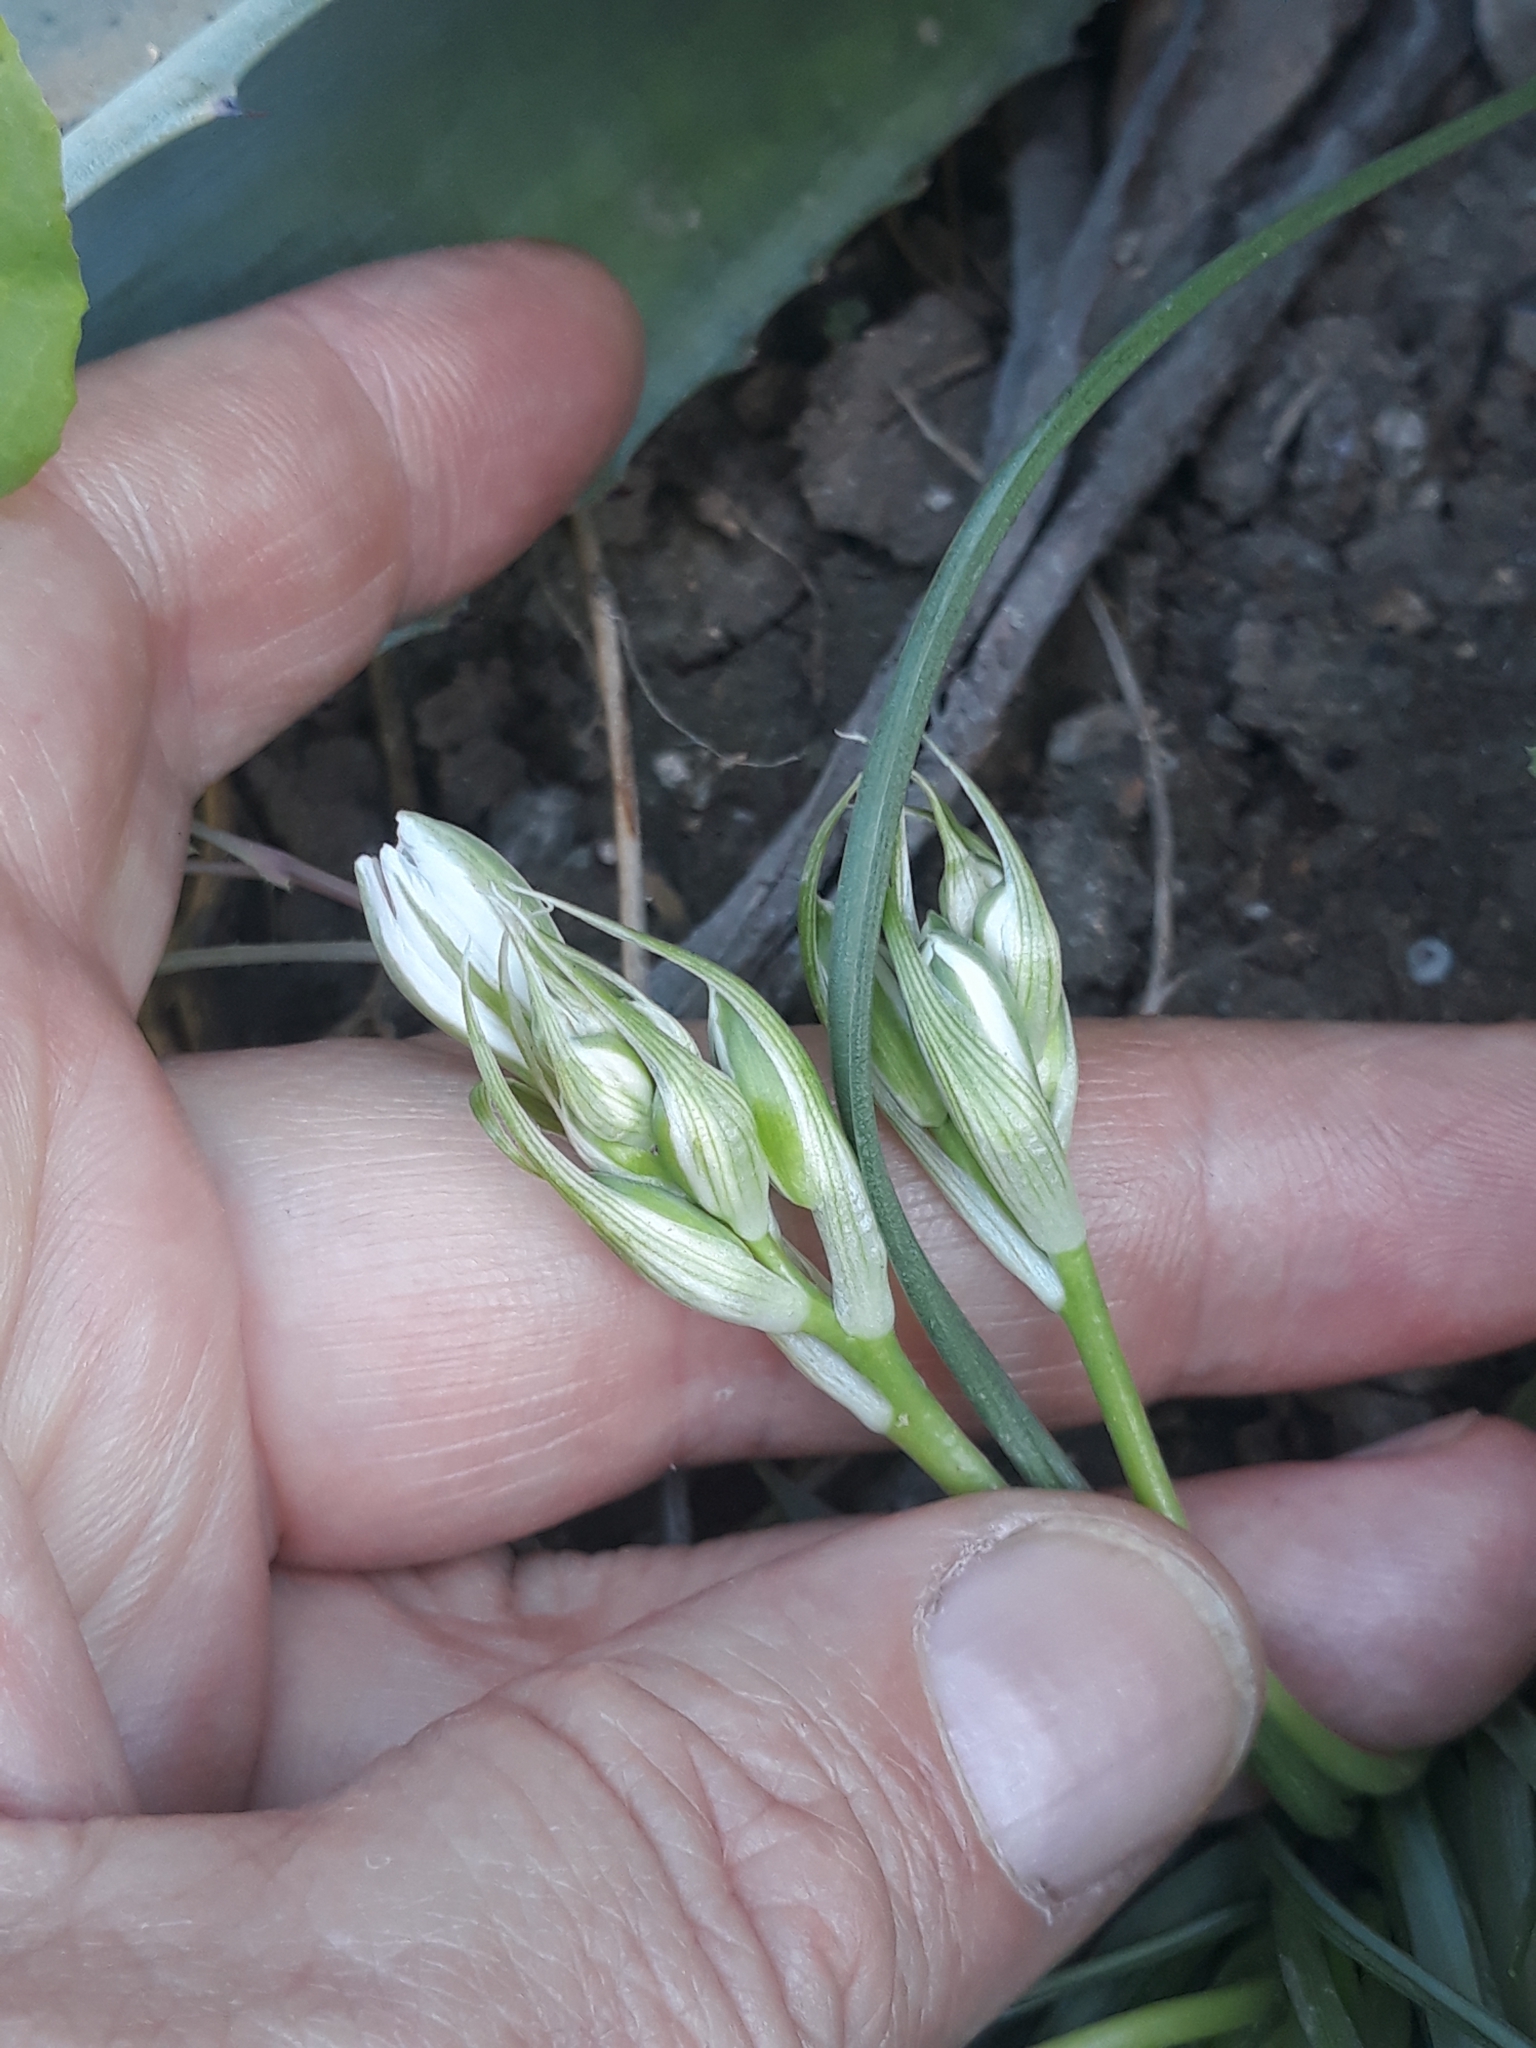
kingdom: Plantae
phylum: Tracheophyta
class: Liliopsida
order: Asparagales
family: Asparagaceae
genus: Ornithogalum
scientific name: Ornithogalum baeticum
